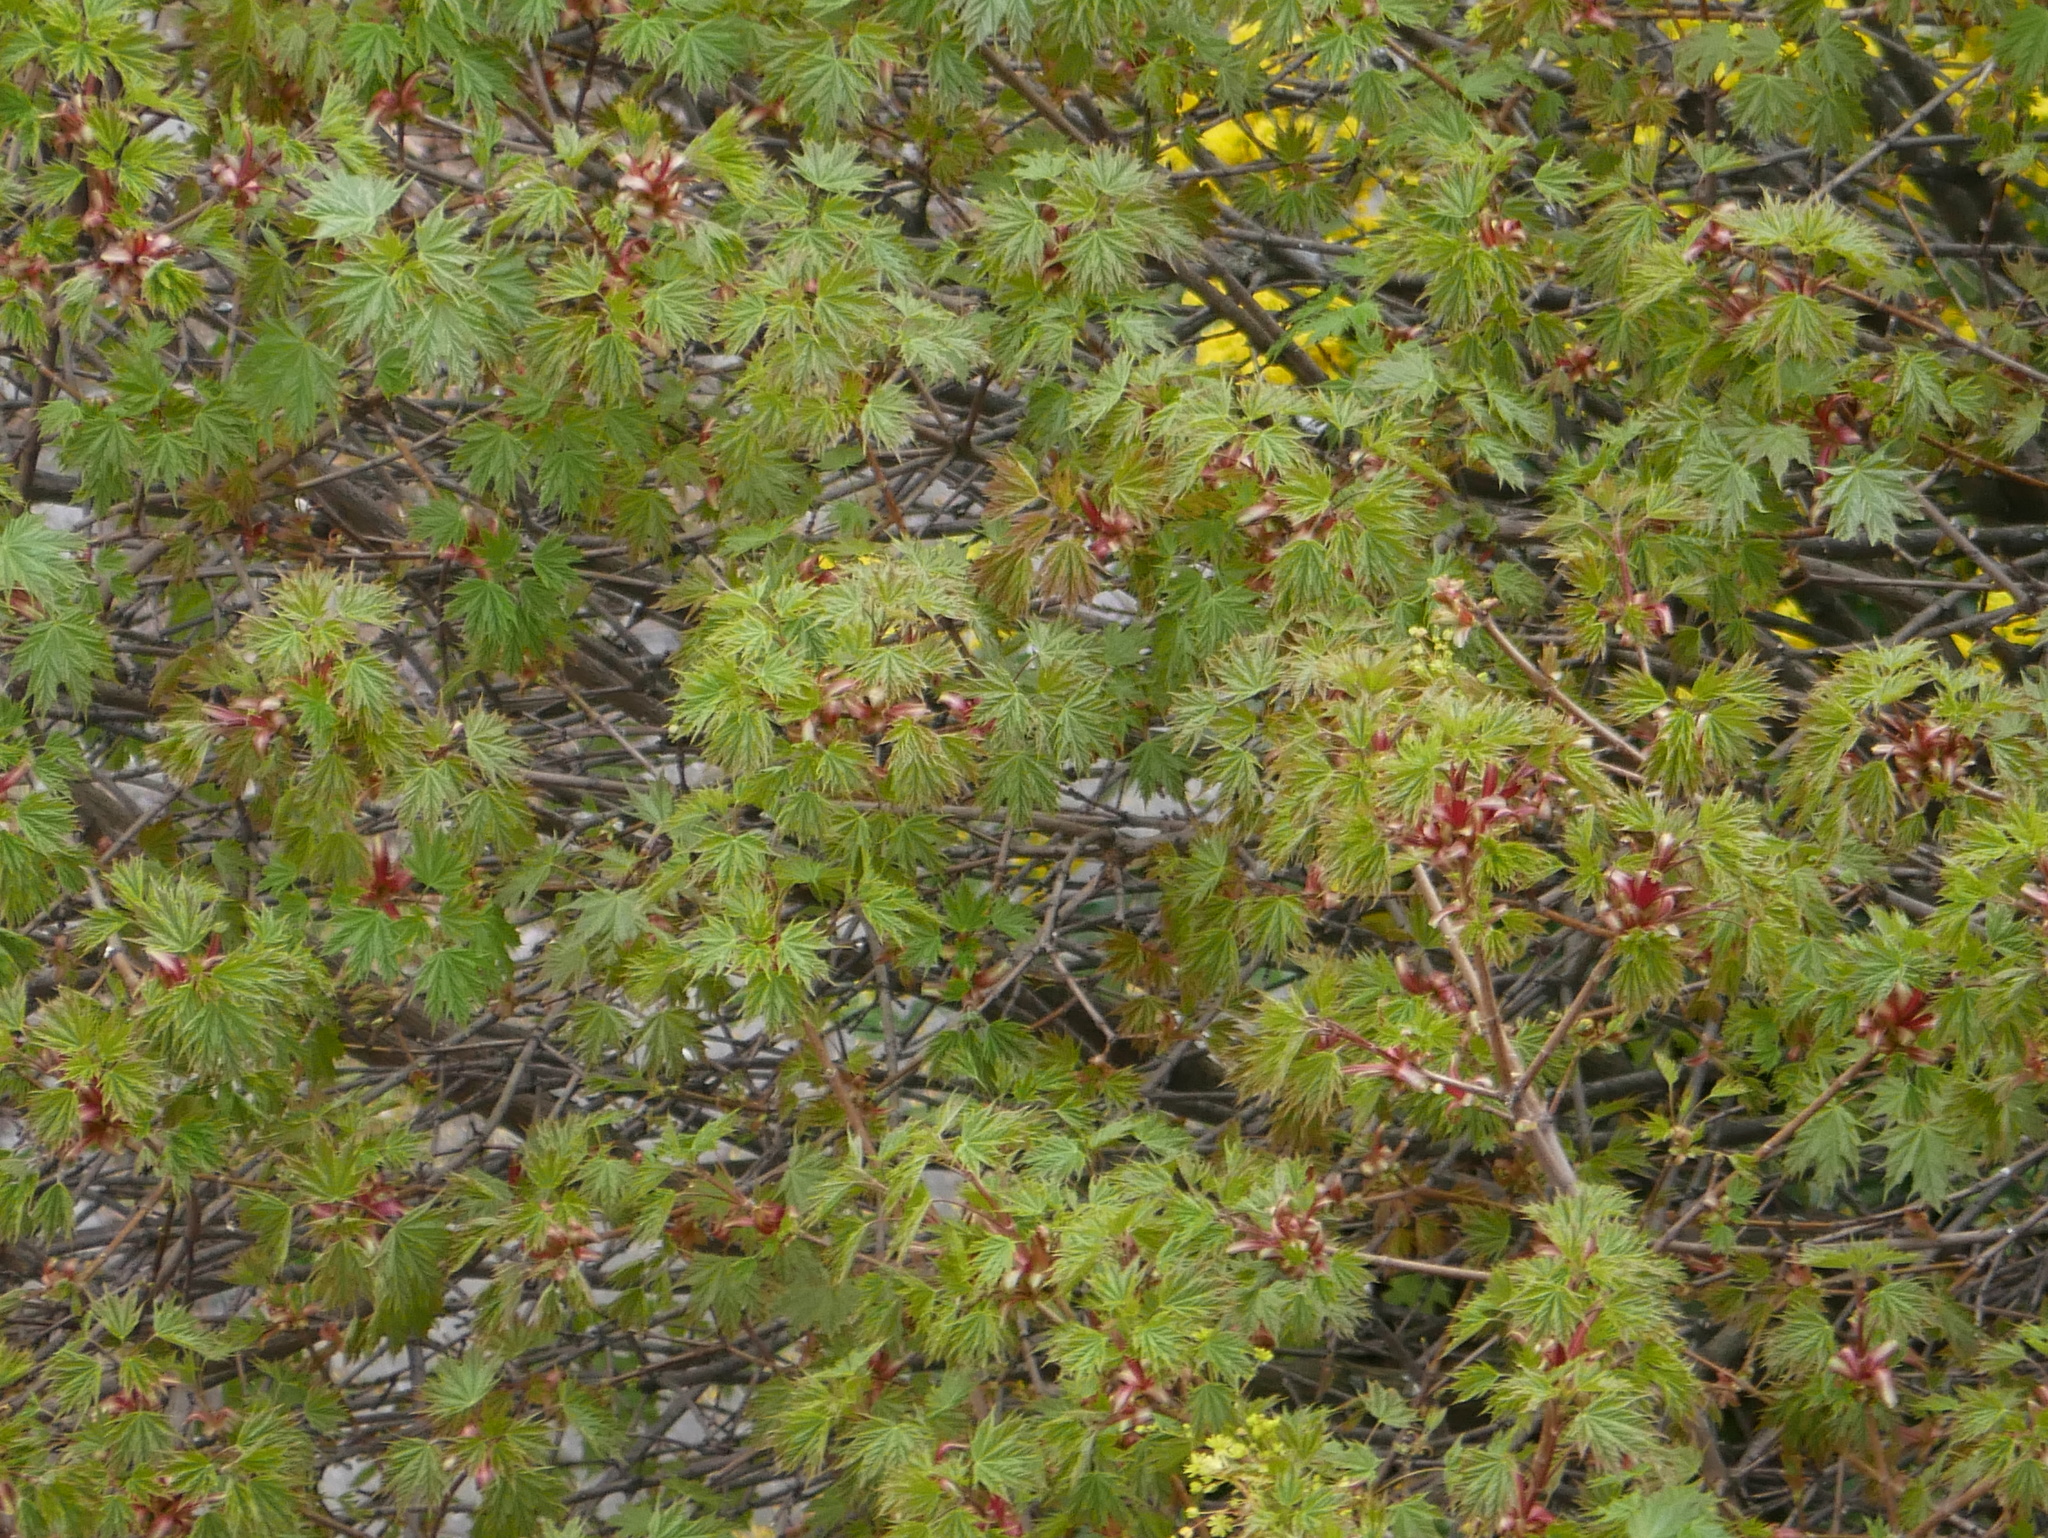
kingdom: Plantae
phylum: Tracheophyta
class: Magnoliopsida
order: Sapindales
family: Sapindaceae
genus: Acer
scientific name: Acer platanoides
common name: Norway maple
